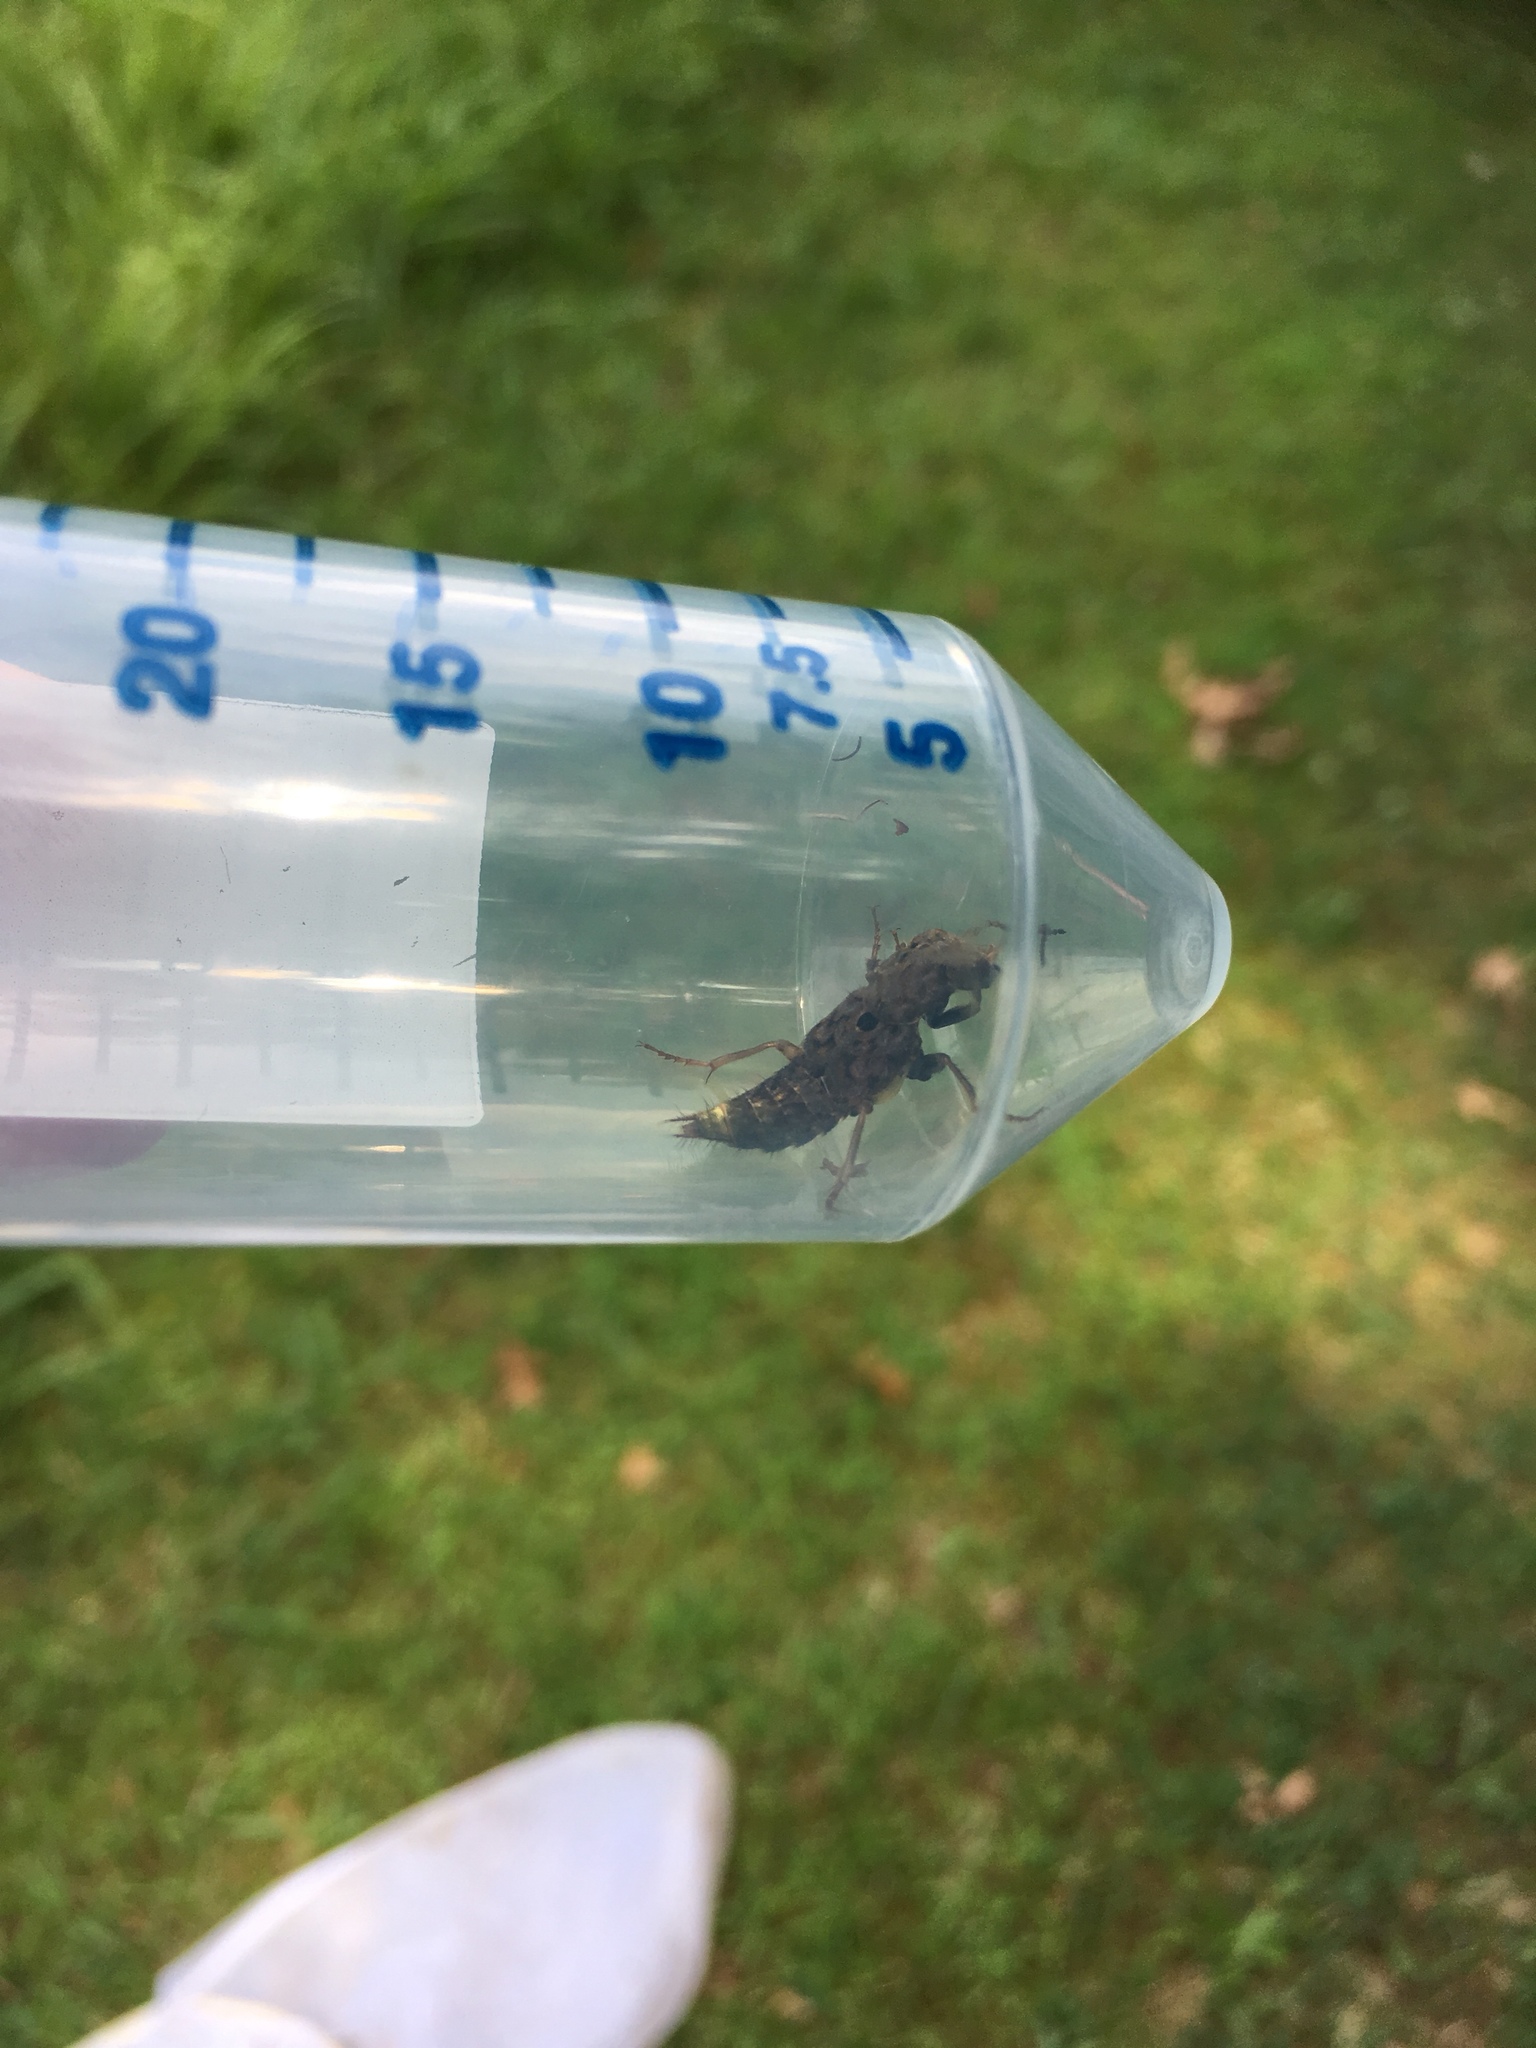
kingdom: Animalia
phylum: Arthropoda
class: Insecta
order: Coleoptera
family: Staphylinidae
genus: Ontholestes
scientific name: Ontholestes cingulatus
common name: Gold-and-brown rove beetle
